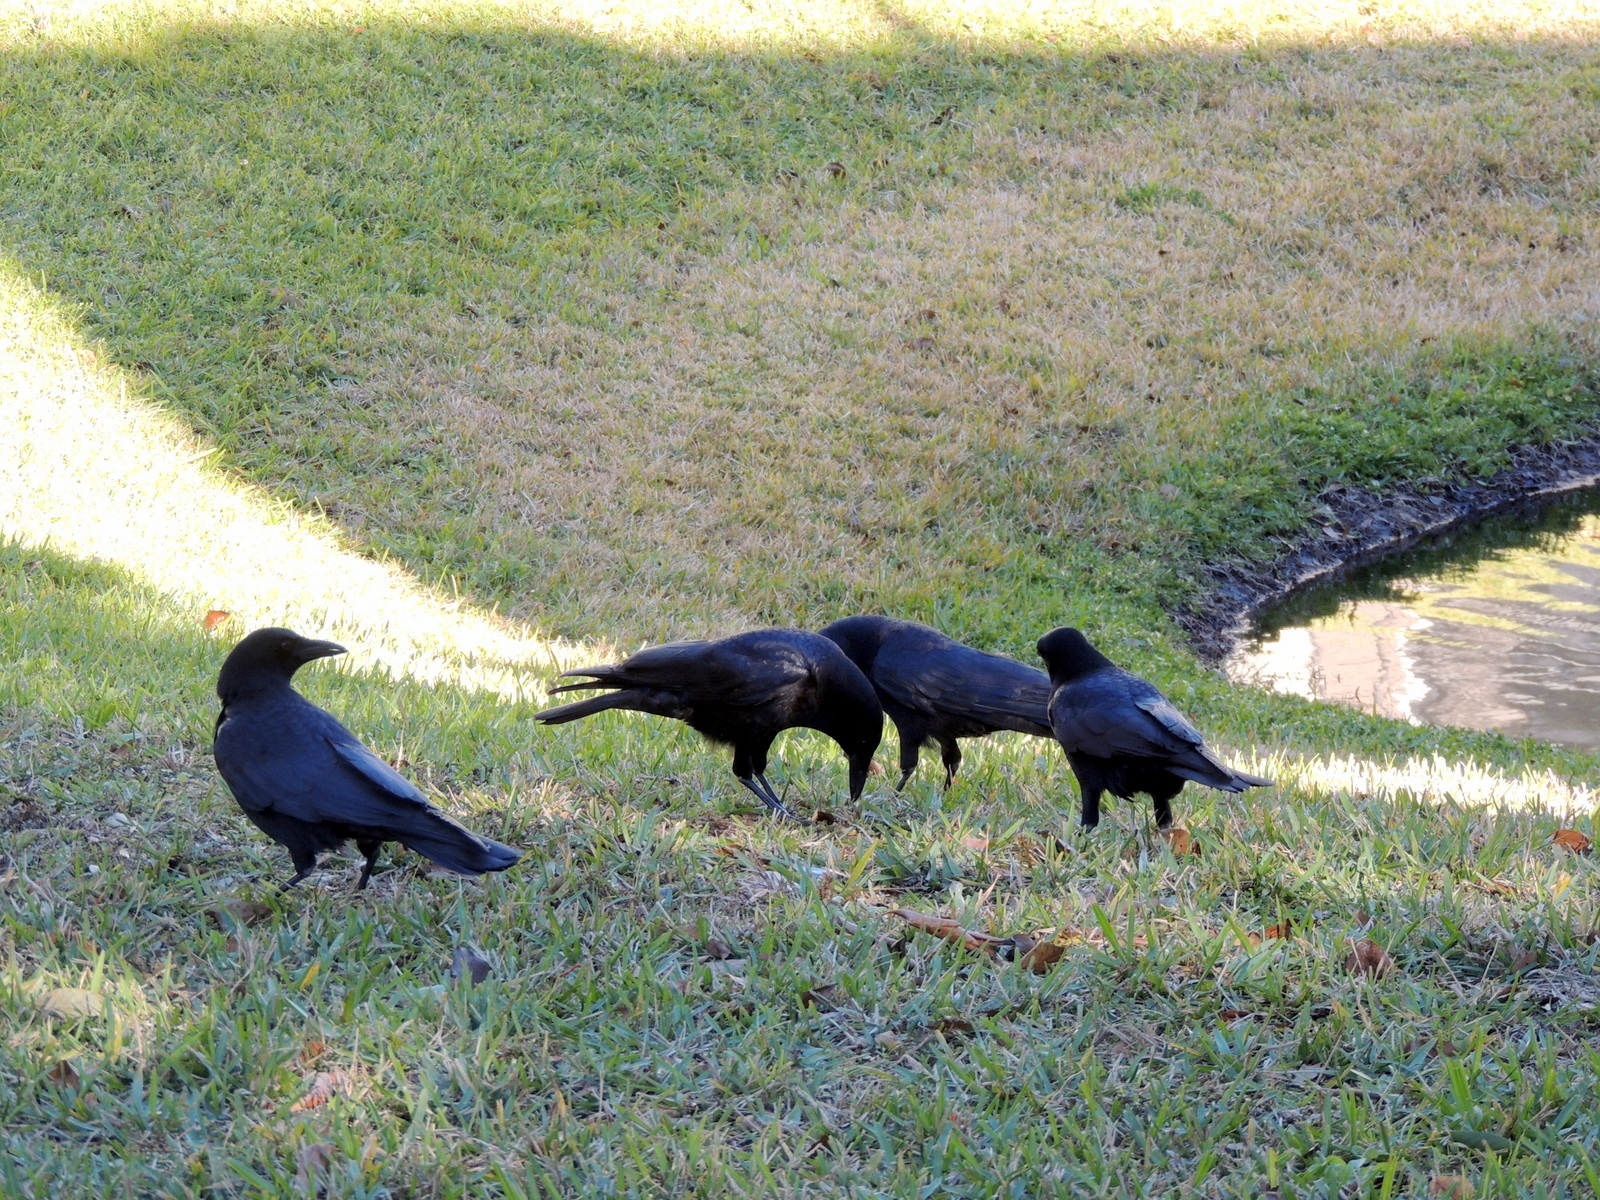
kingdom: Animalia
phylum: Chordata
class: Aves
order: Passeriformes
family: Corvidae
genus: Corvus
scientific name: Corvus
